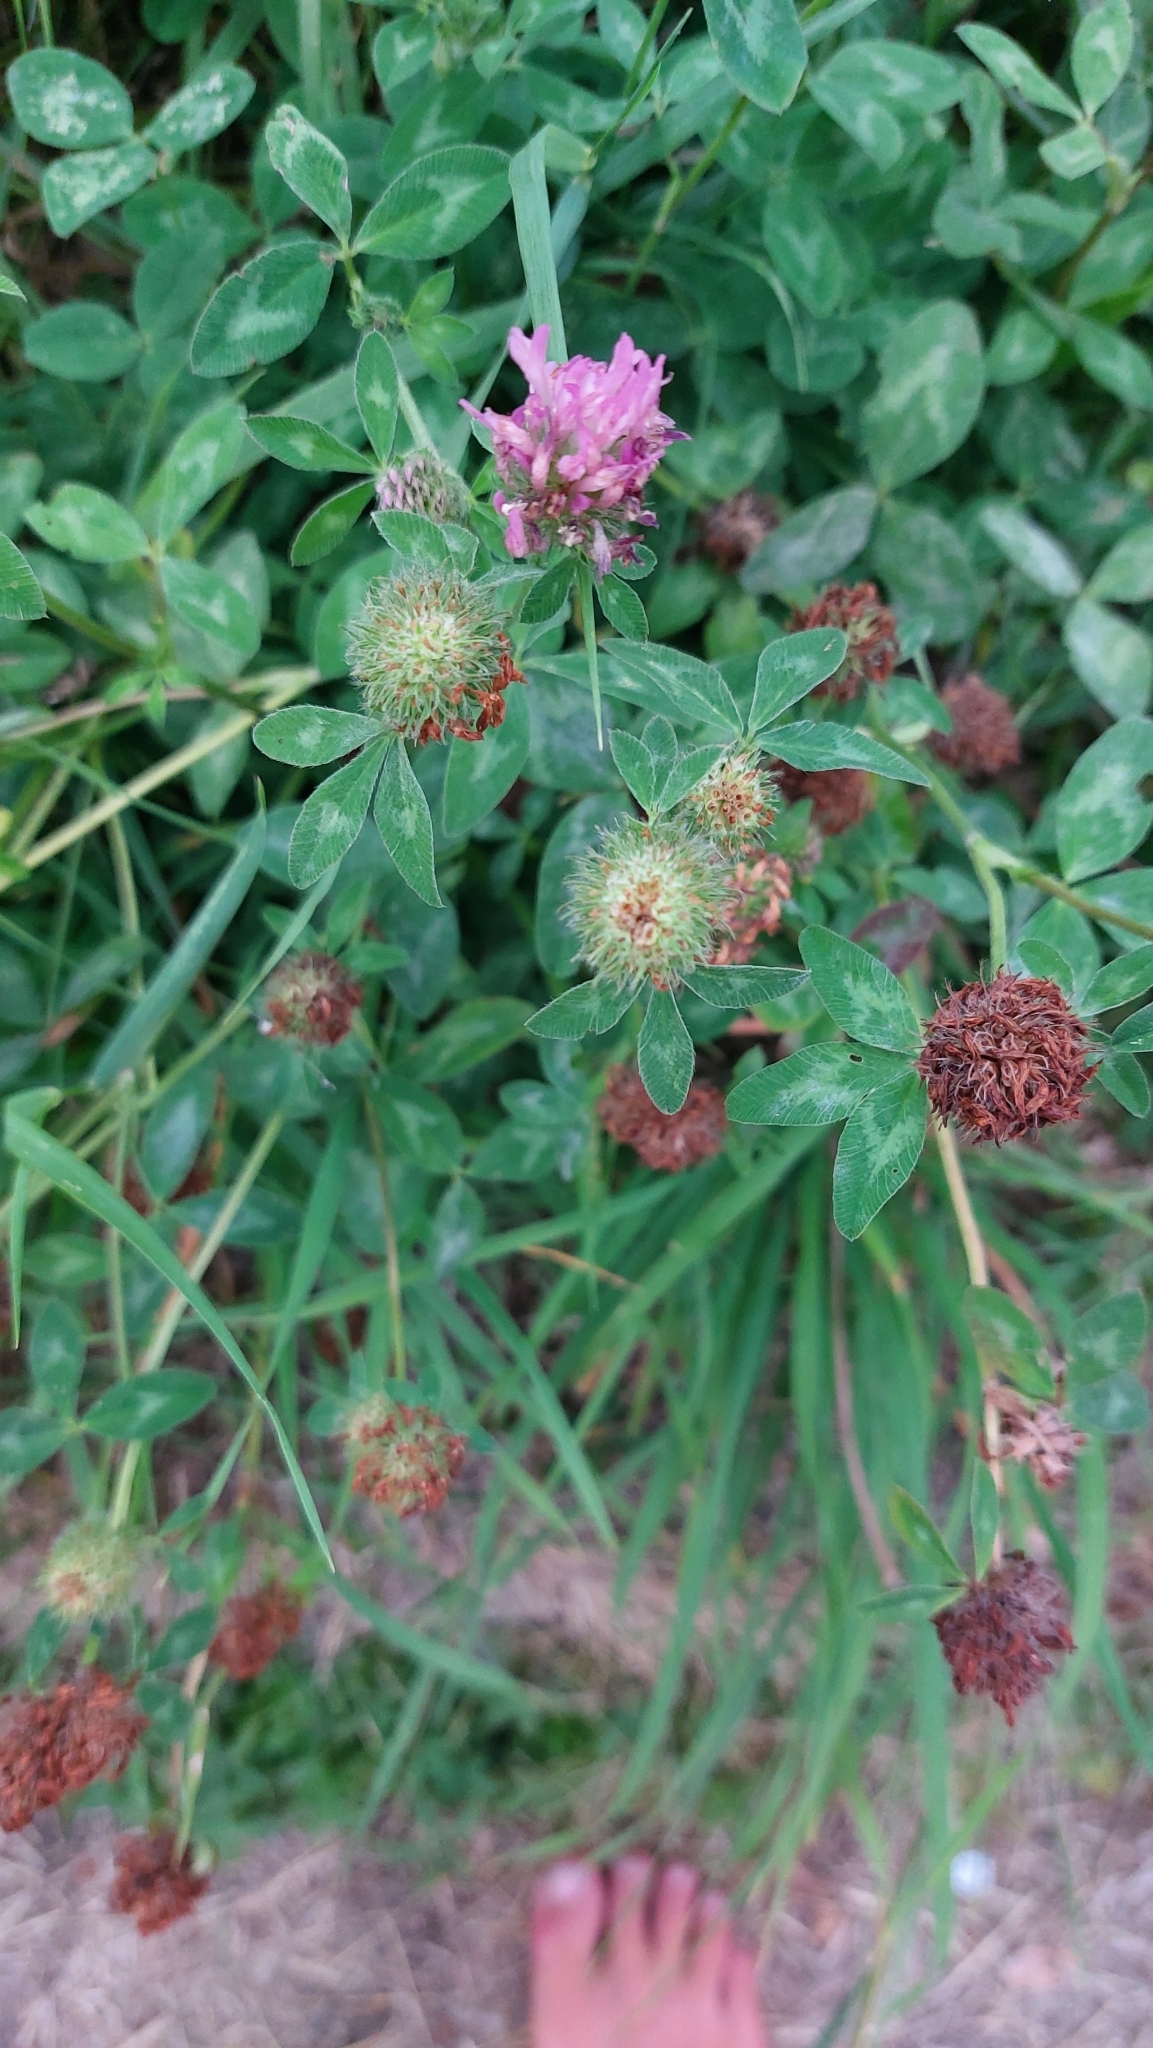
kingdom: Plantae
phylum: Tracheophyta
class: Magnoliopsida
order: Fabales
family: Fabaceae
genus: Trifolium
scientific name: Trifolium pratense
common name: Red clover
